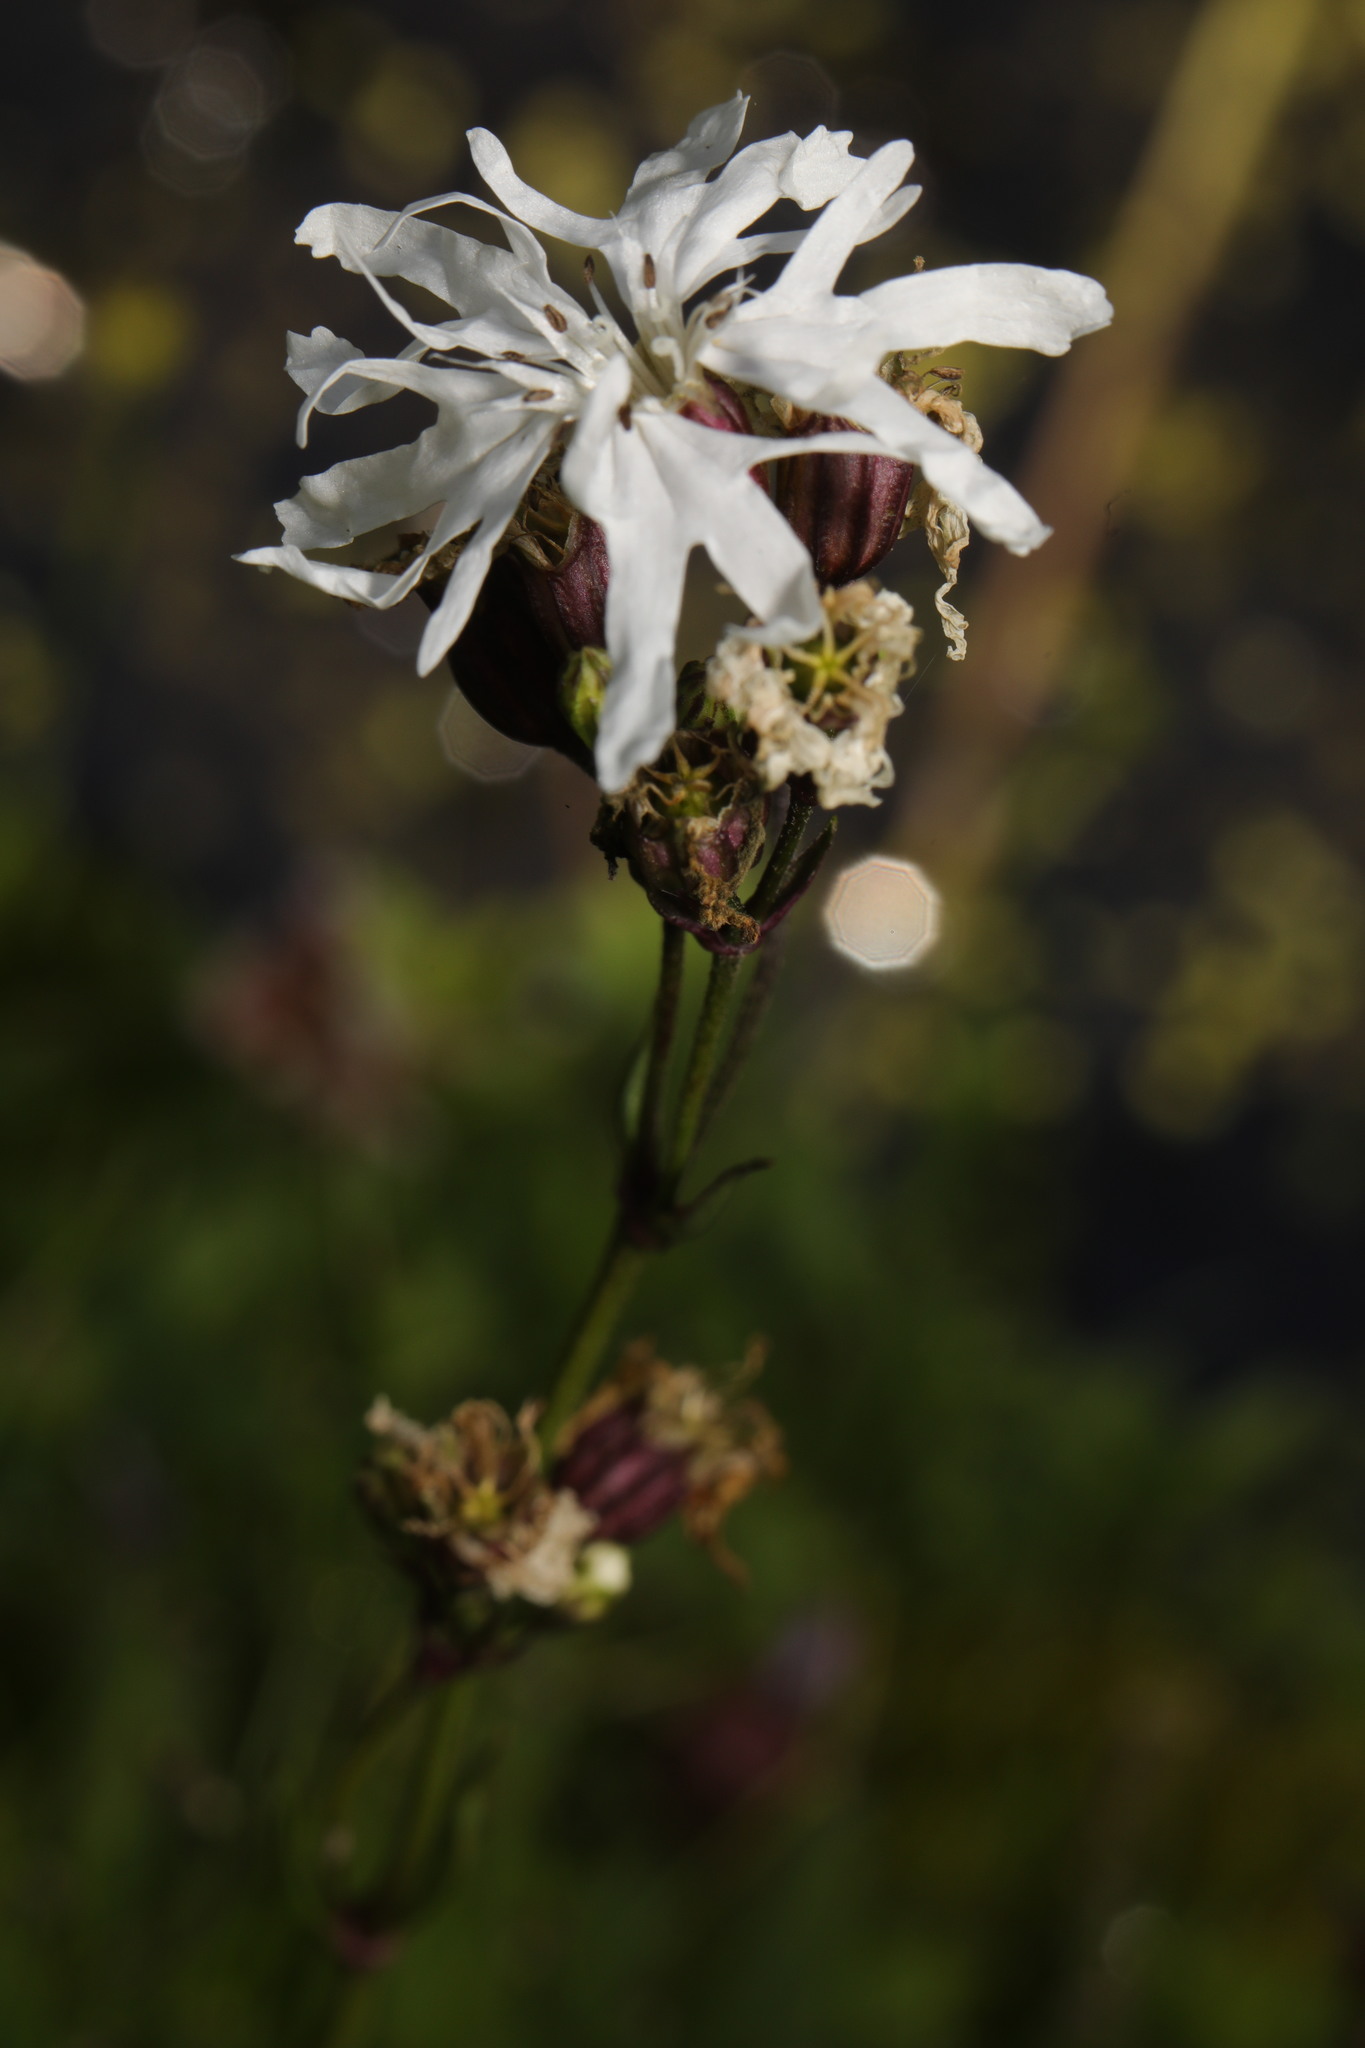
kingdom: Plantae
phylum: Tracheophyta
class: Magnoliopsida
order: Caryophyllales
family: Caryophyllaceae
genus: Silene
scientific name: Silene flos-cuculi
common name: Ragged-robin
